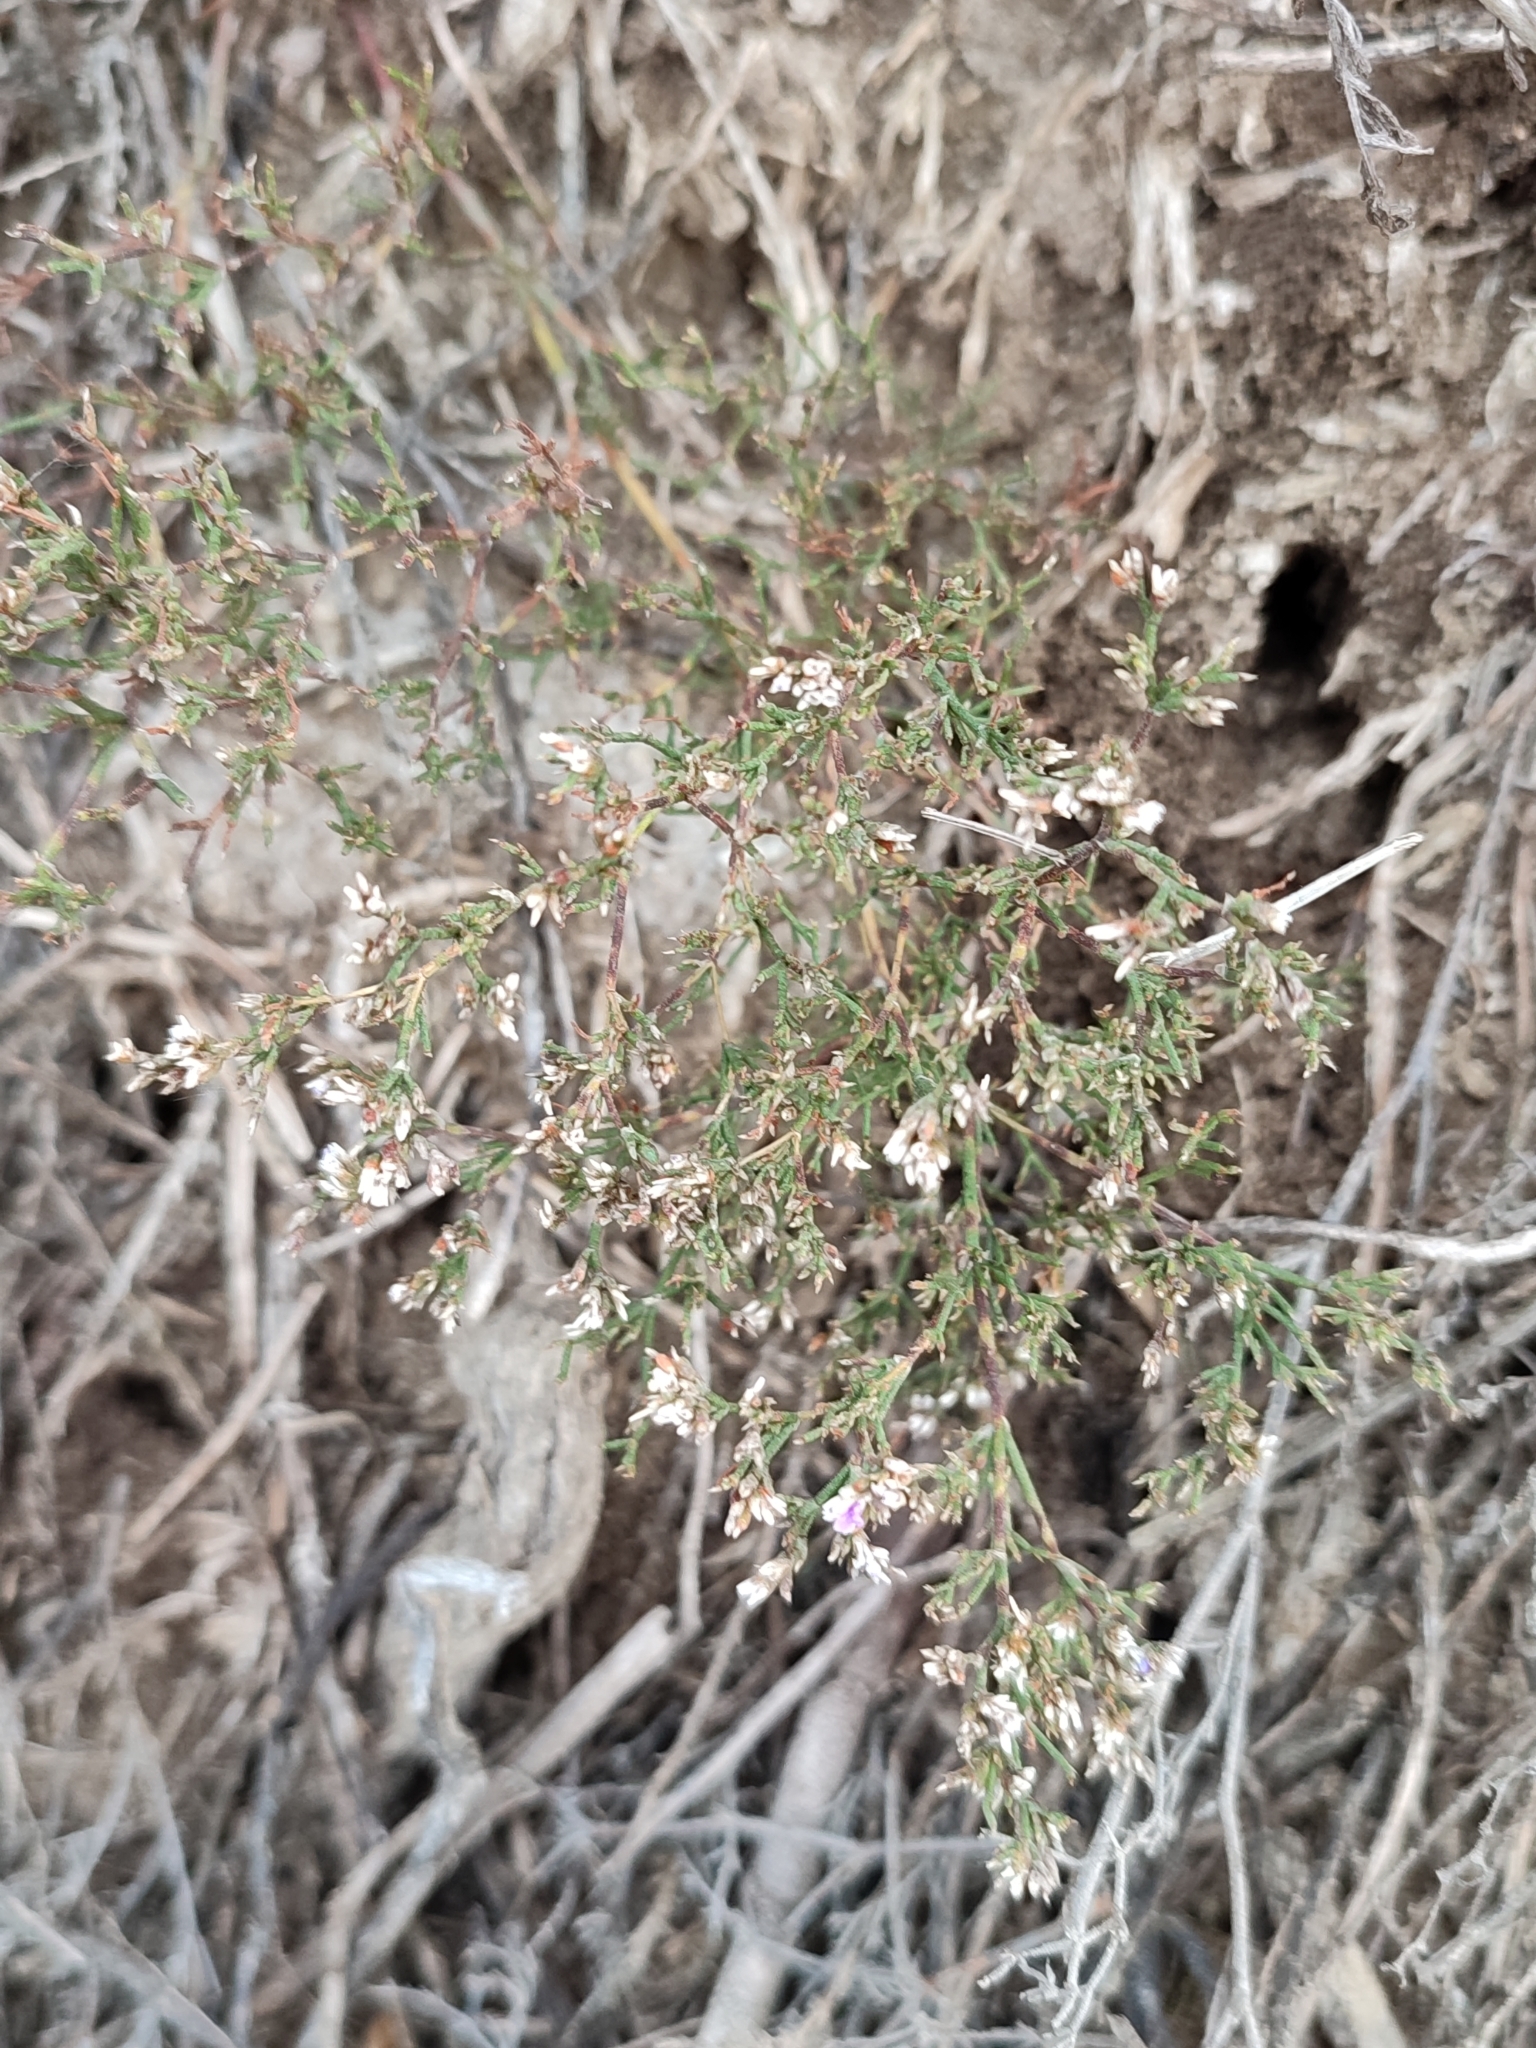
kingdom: Plantae
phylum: Tracheophyta
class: Magnoliopsida
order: Caryophyllales
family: Plumbaginaceae
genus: Limonium
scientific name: Limonium bellidifolium
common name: Matted sea-lavender
